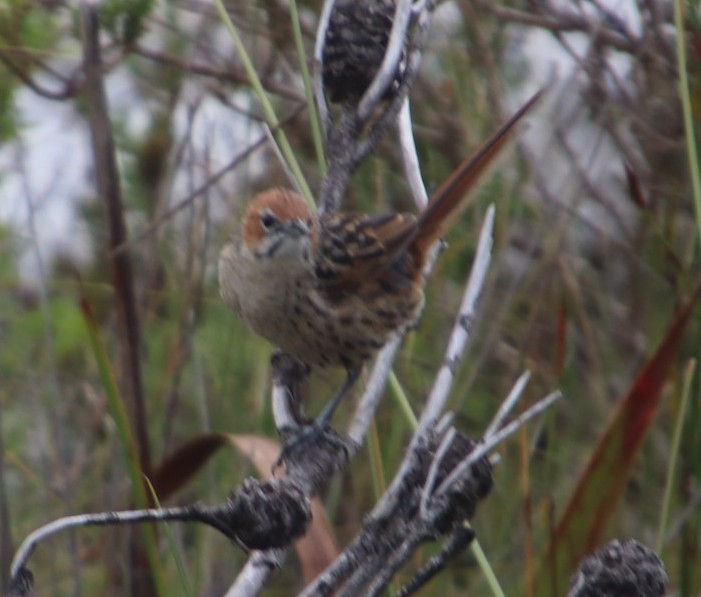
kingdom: Animalia
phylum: Chordata
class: Aves
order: Passeriformes
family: Macrosphenidae
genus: Sphenoeacus
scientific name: Sphenoeacus afer
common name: Cape grassbird
